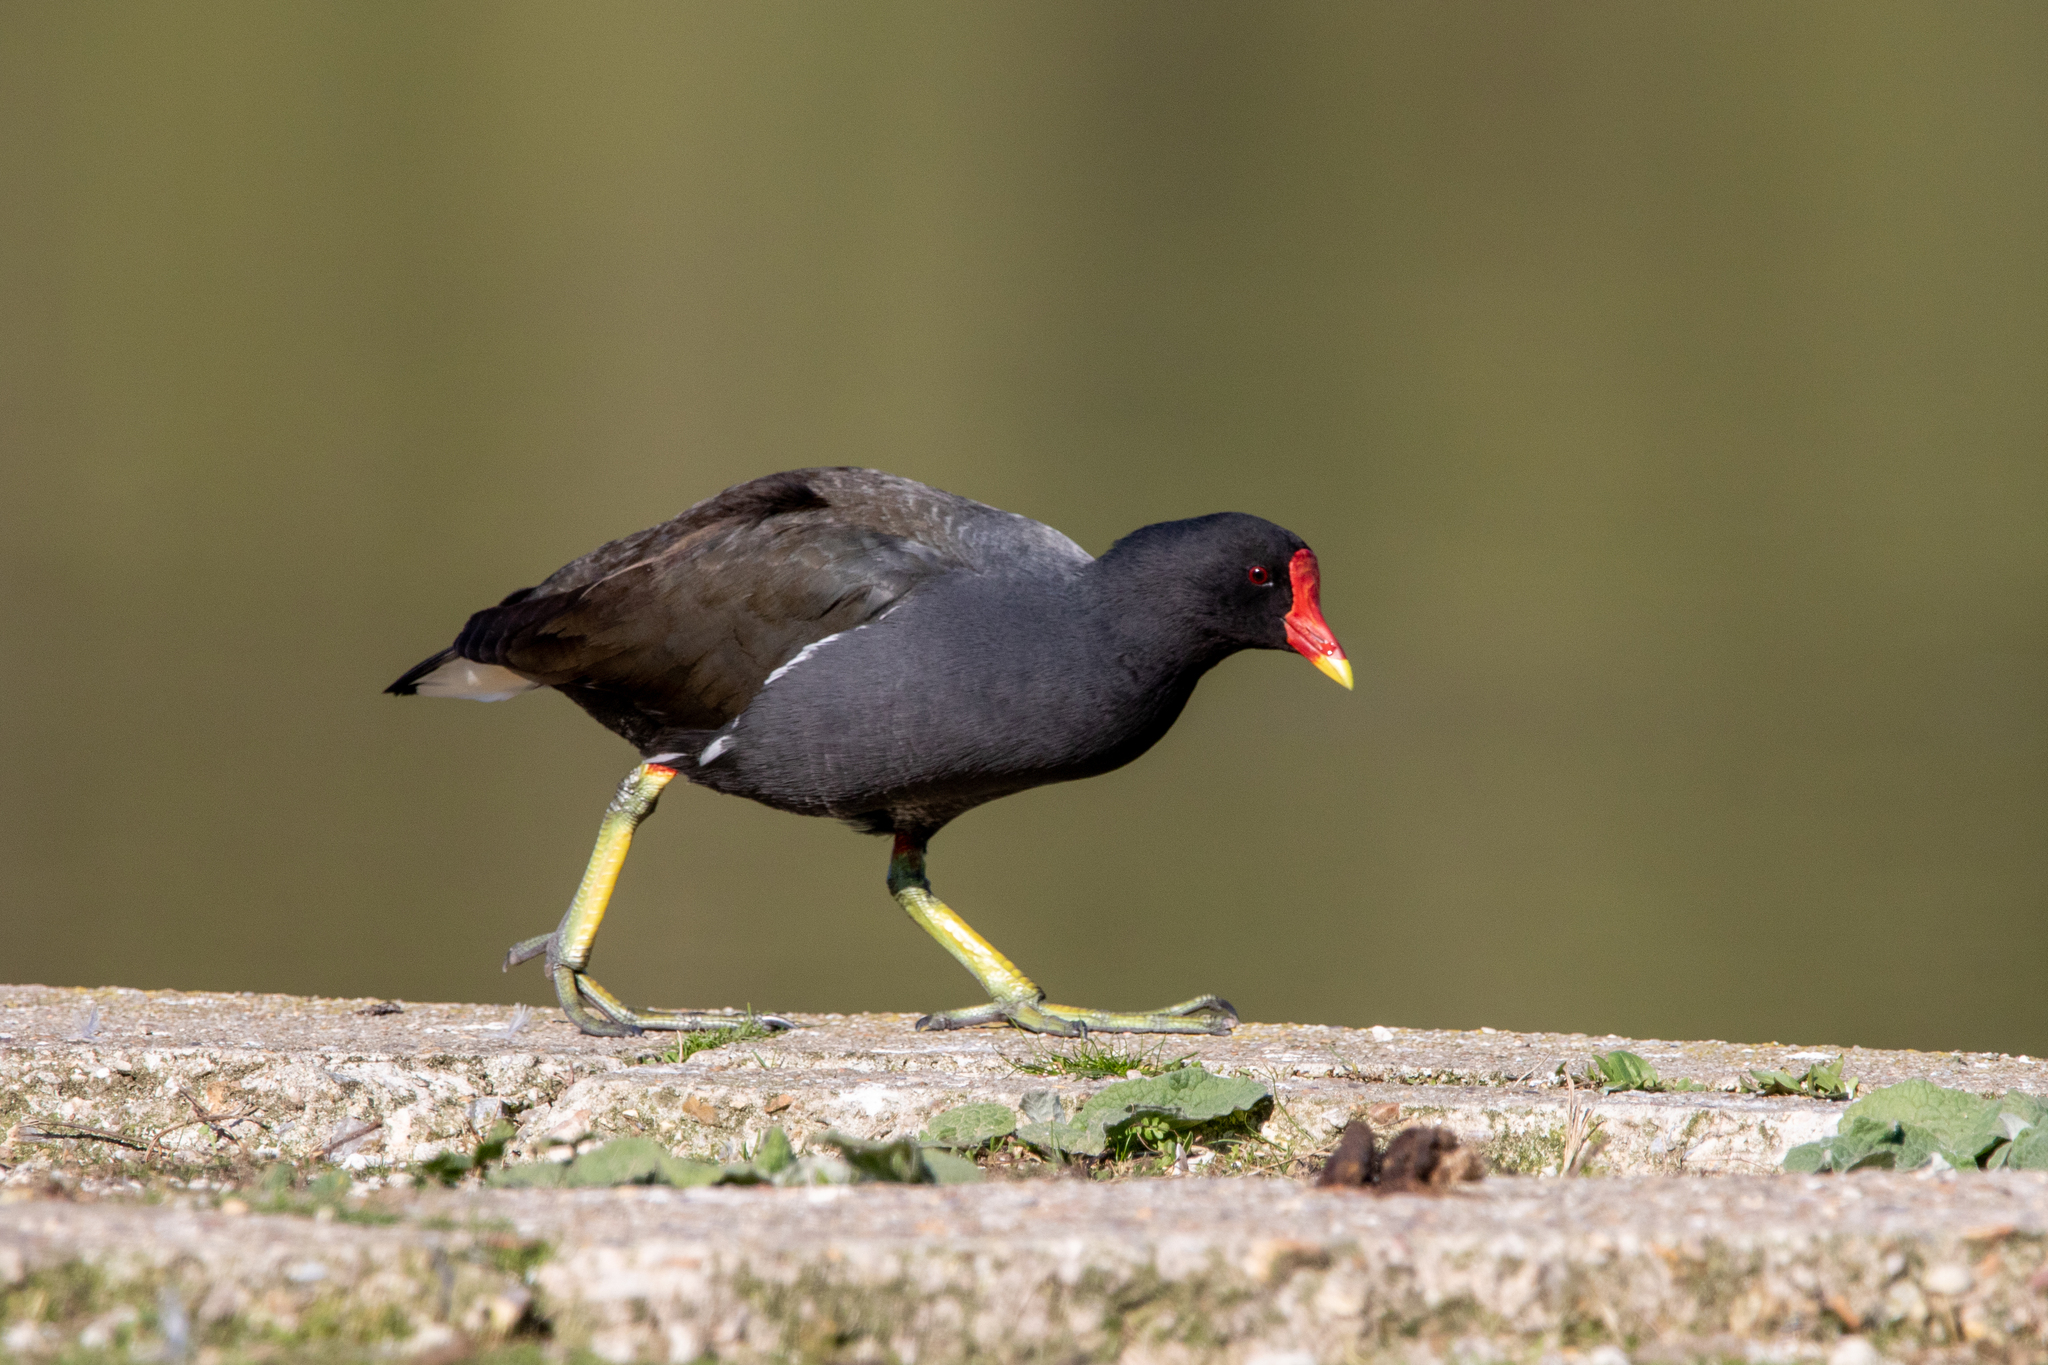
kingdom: Animalia
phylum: Chordata
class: Aves
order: Gruiformes
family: Rallidae
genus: Gallinula
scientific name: Gallinula chloropus
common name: Common moorhen
